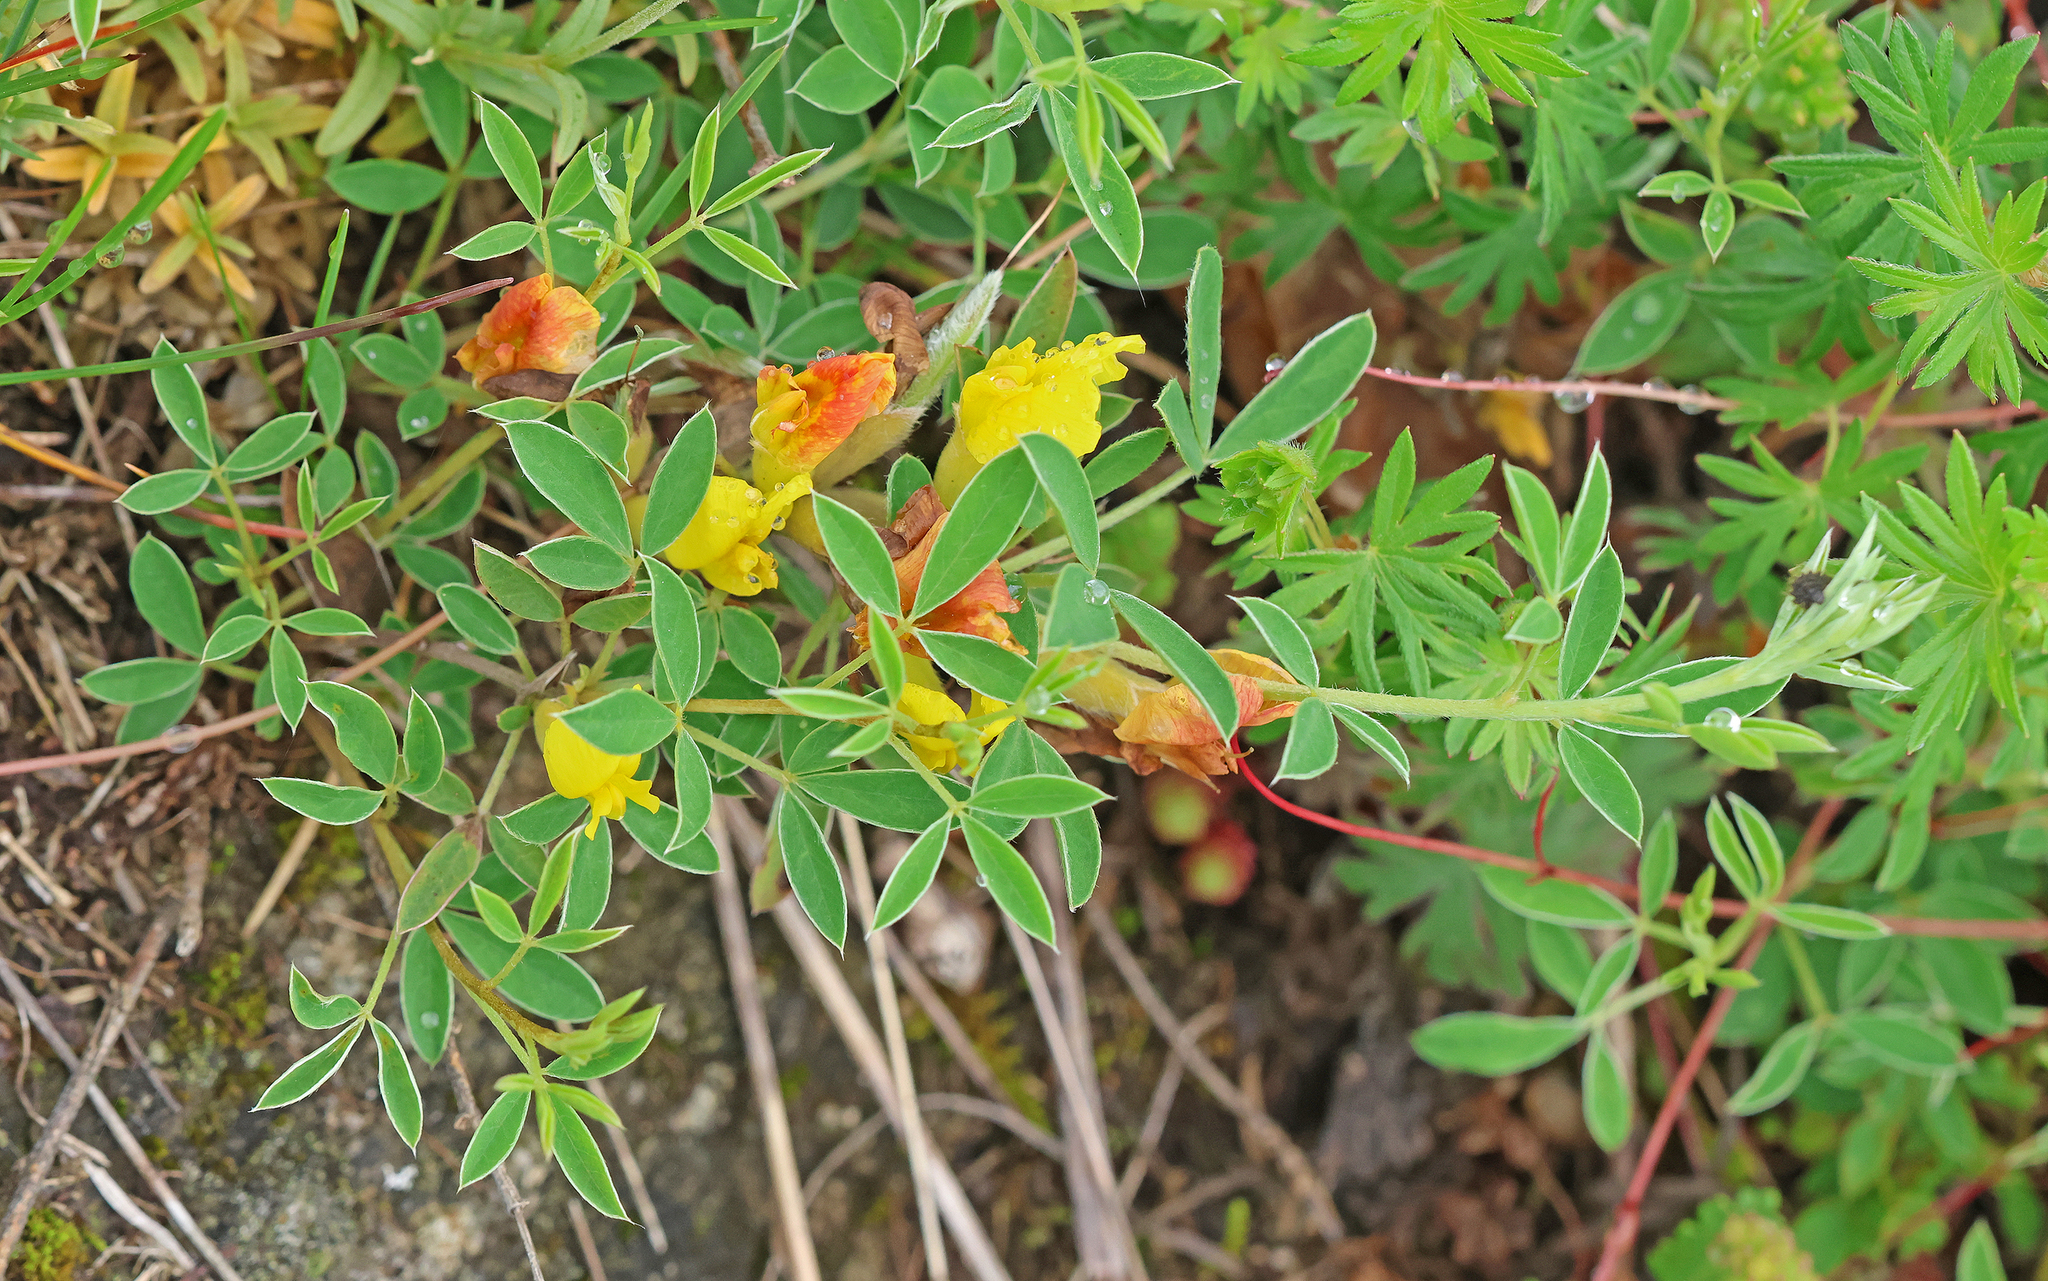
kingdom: Plantae
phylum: Tracheophyta
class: Magnoliopsida
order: Fabales
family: Fabaceae
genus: Chamaecytisus
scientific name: Chamaecytisus ratisbonensis
